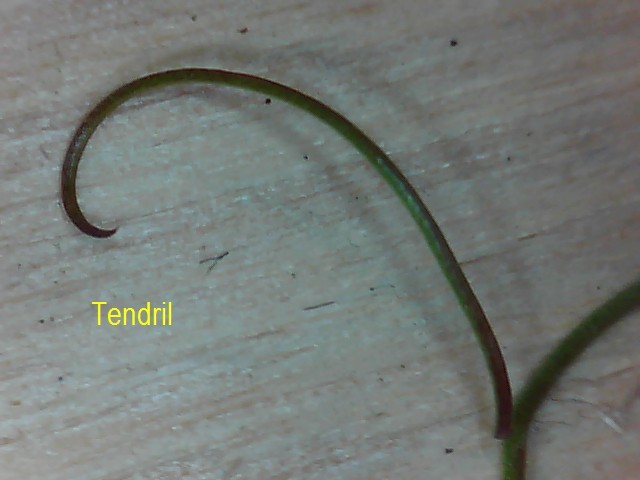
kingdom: Plantae
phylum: Tracheophyta
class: Magnoliopsida
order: Fabales
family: Fabaceae
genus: Vicia
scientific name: Vicia sativa
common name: Garden vetch
